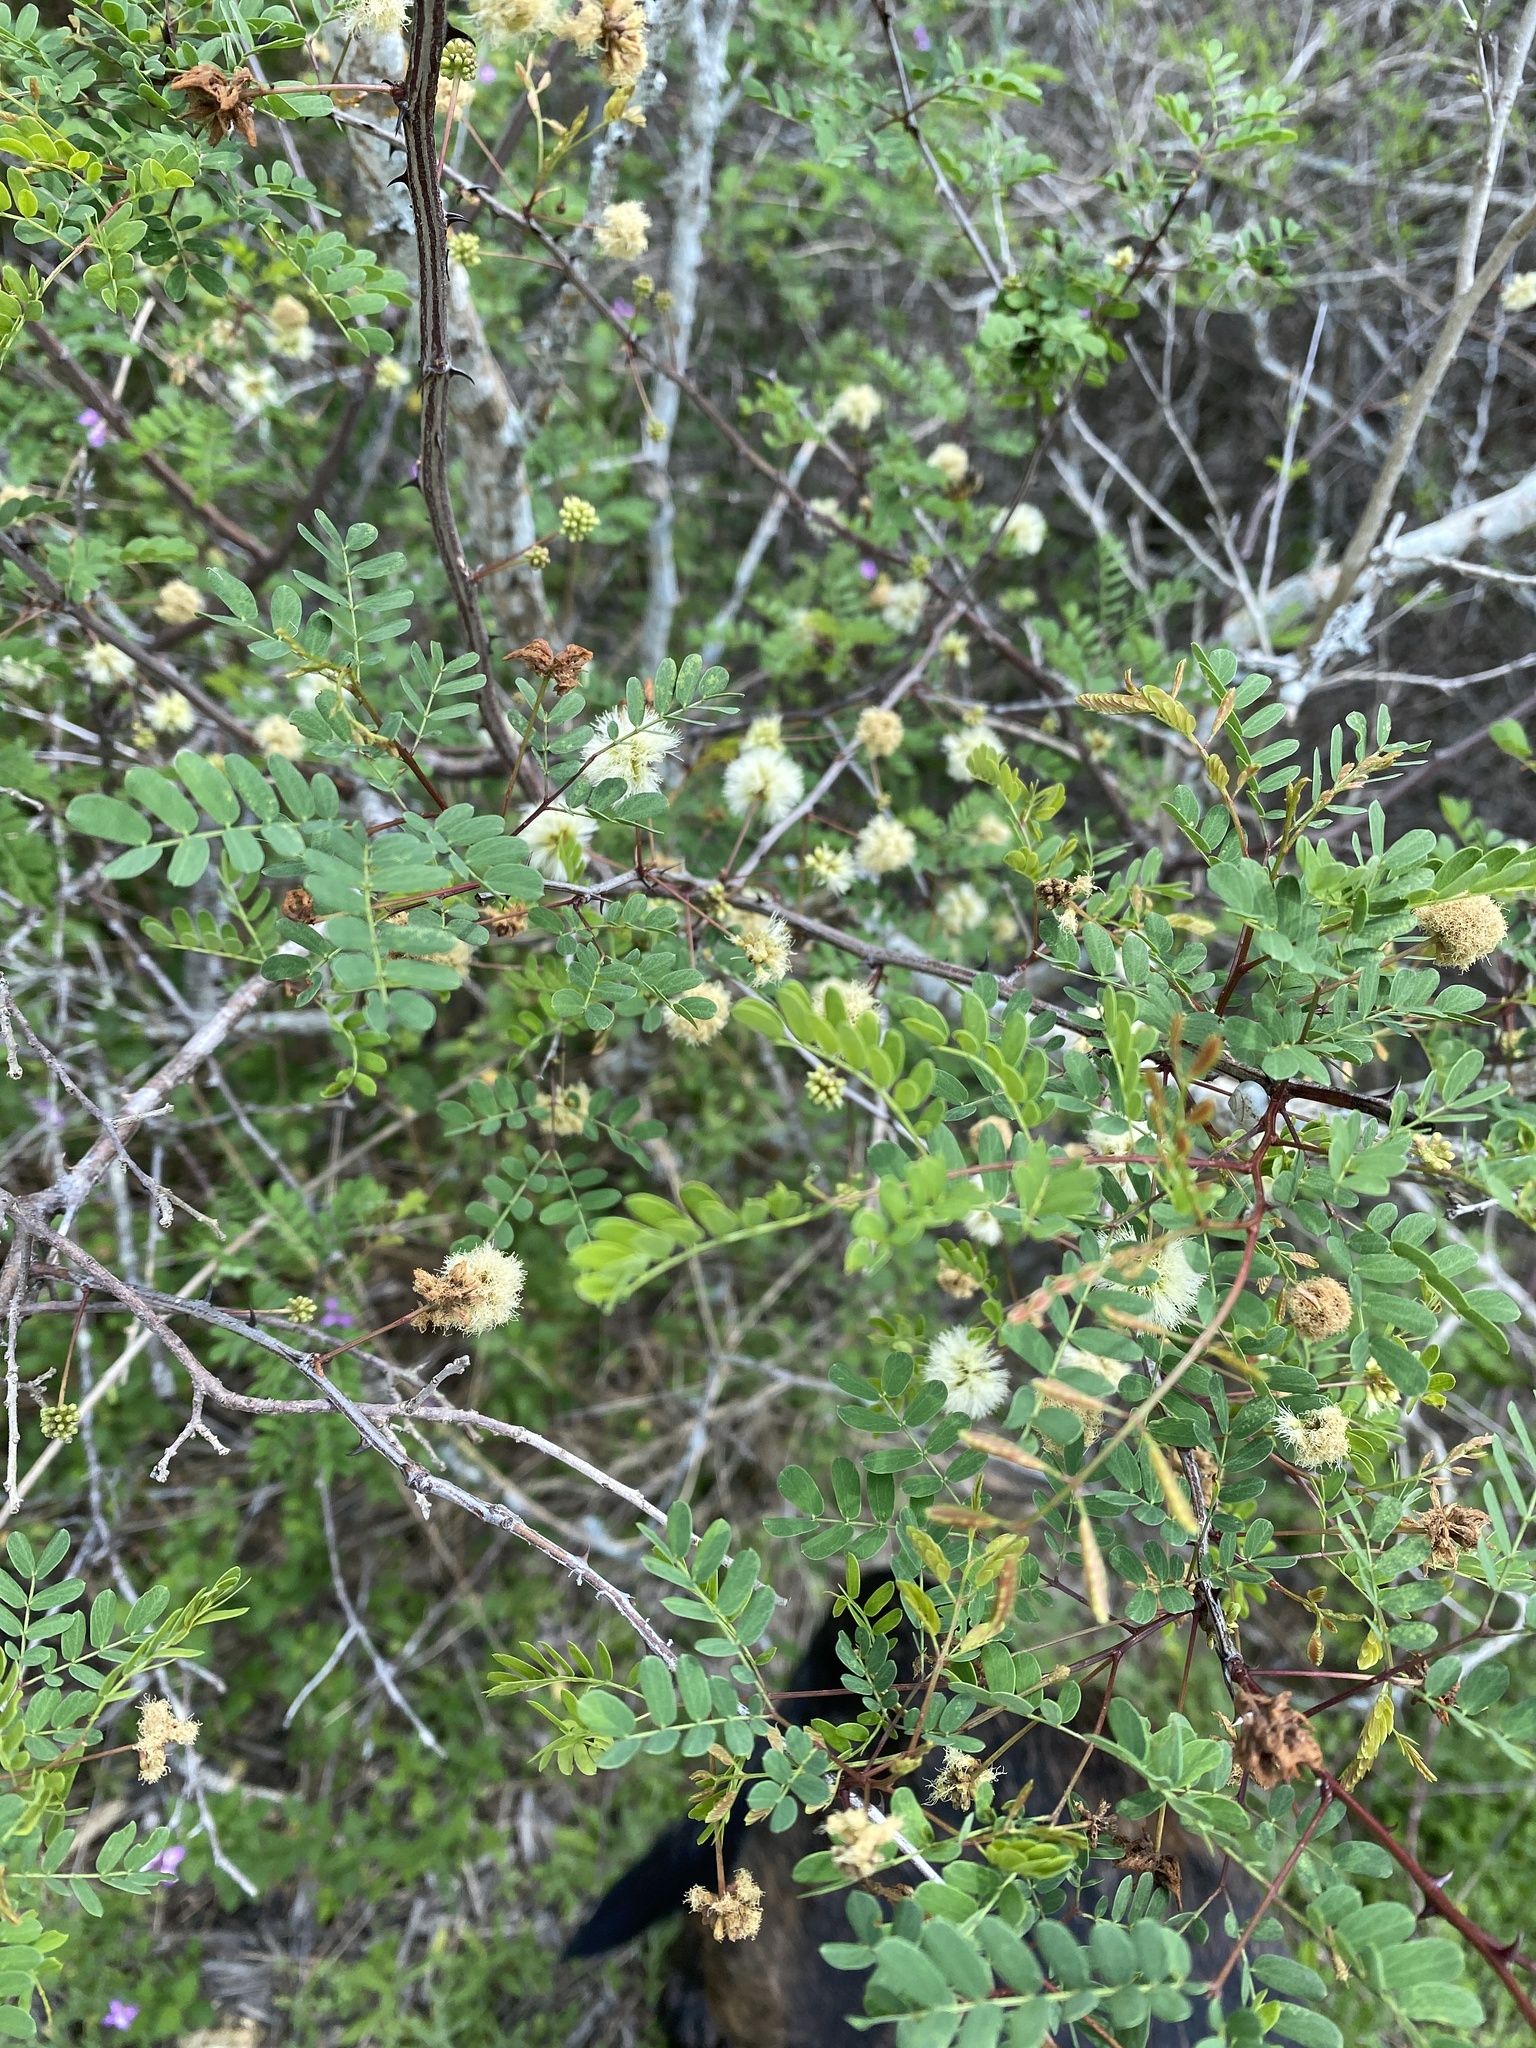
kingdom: Plantae
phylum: Tracheophyta
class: Magnoliopsida
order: Fabales
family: Fabaceae
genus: Senegalia
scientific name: Senegalia roemeriana
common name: Roemer's acacia
